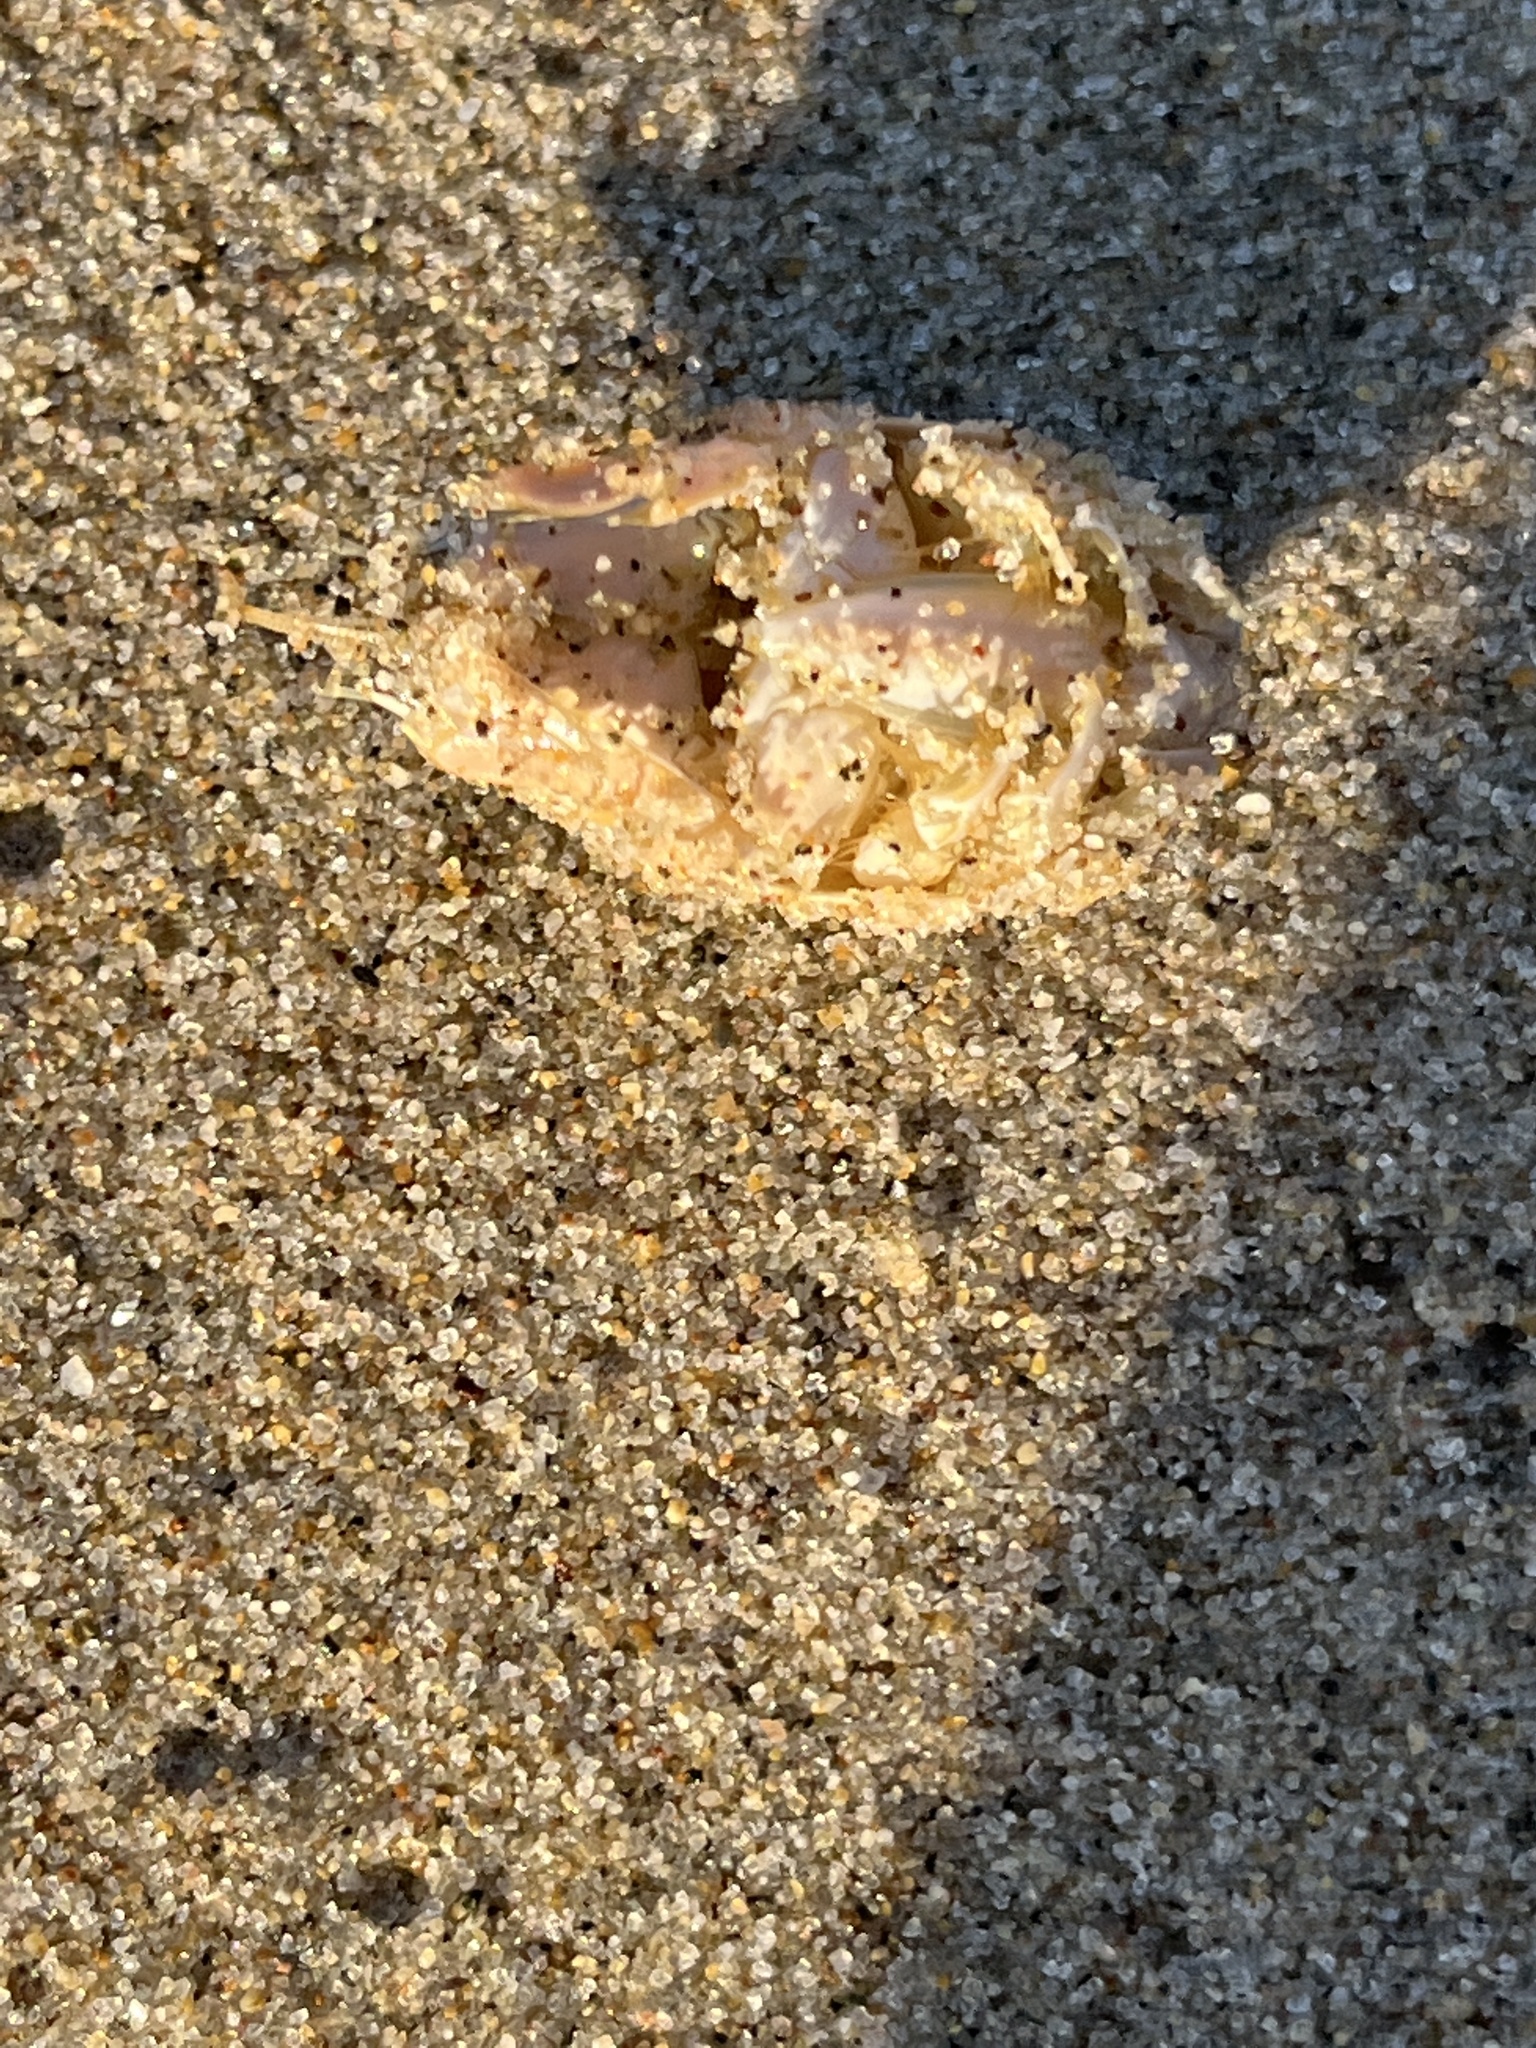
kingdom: Animalia
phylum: Arthropoda
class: Malacostraca
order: Decapoda
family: Hippidae
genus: Emerita
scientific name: Emerita analoga
